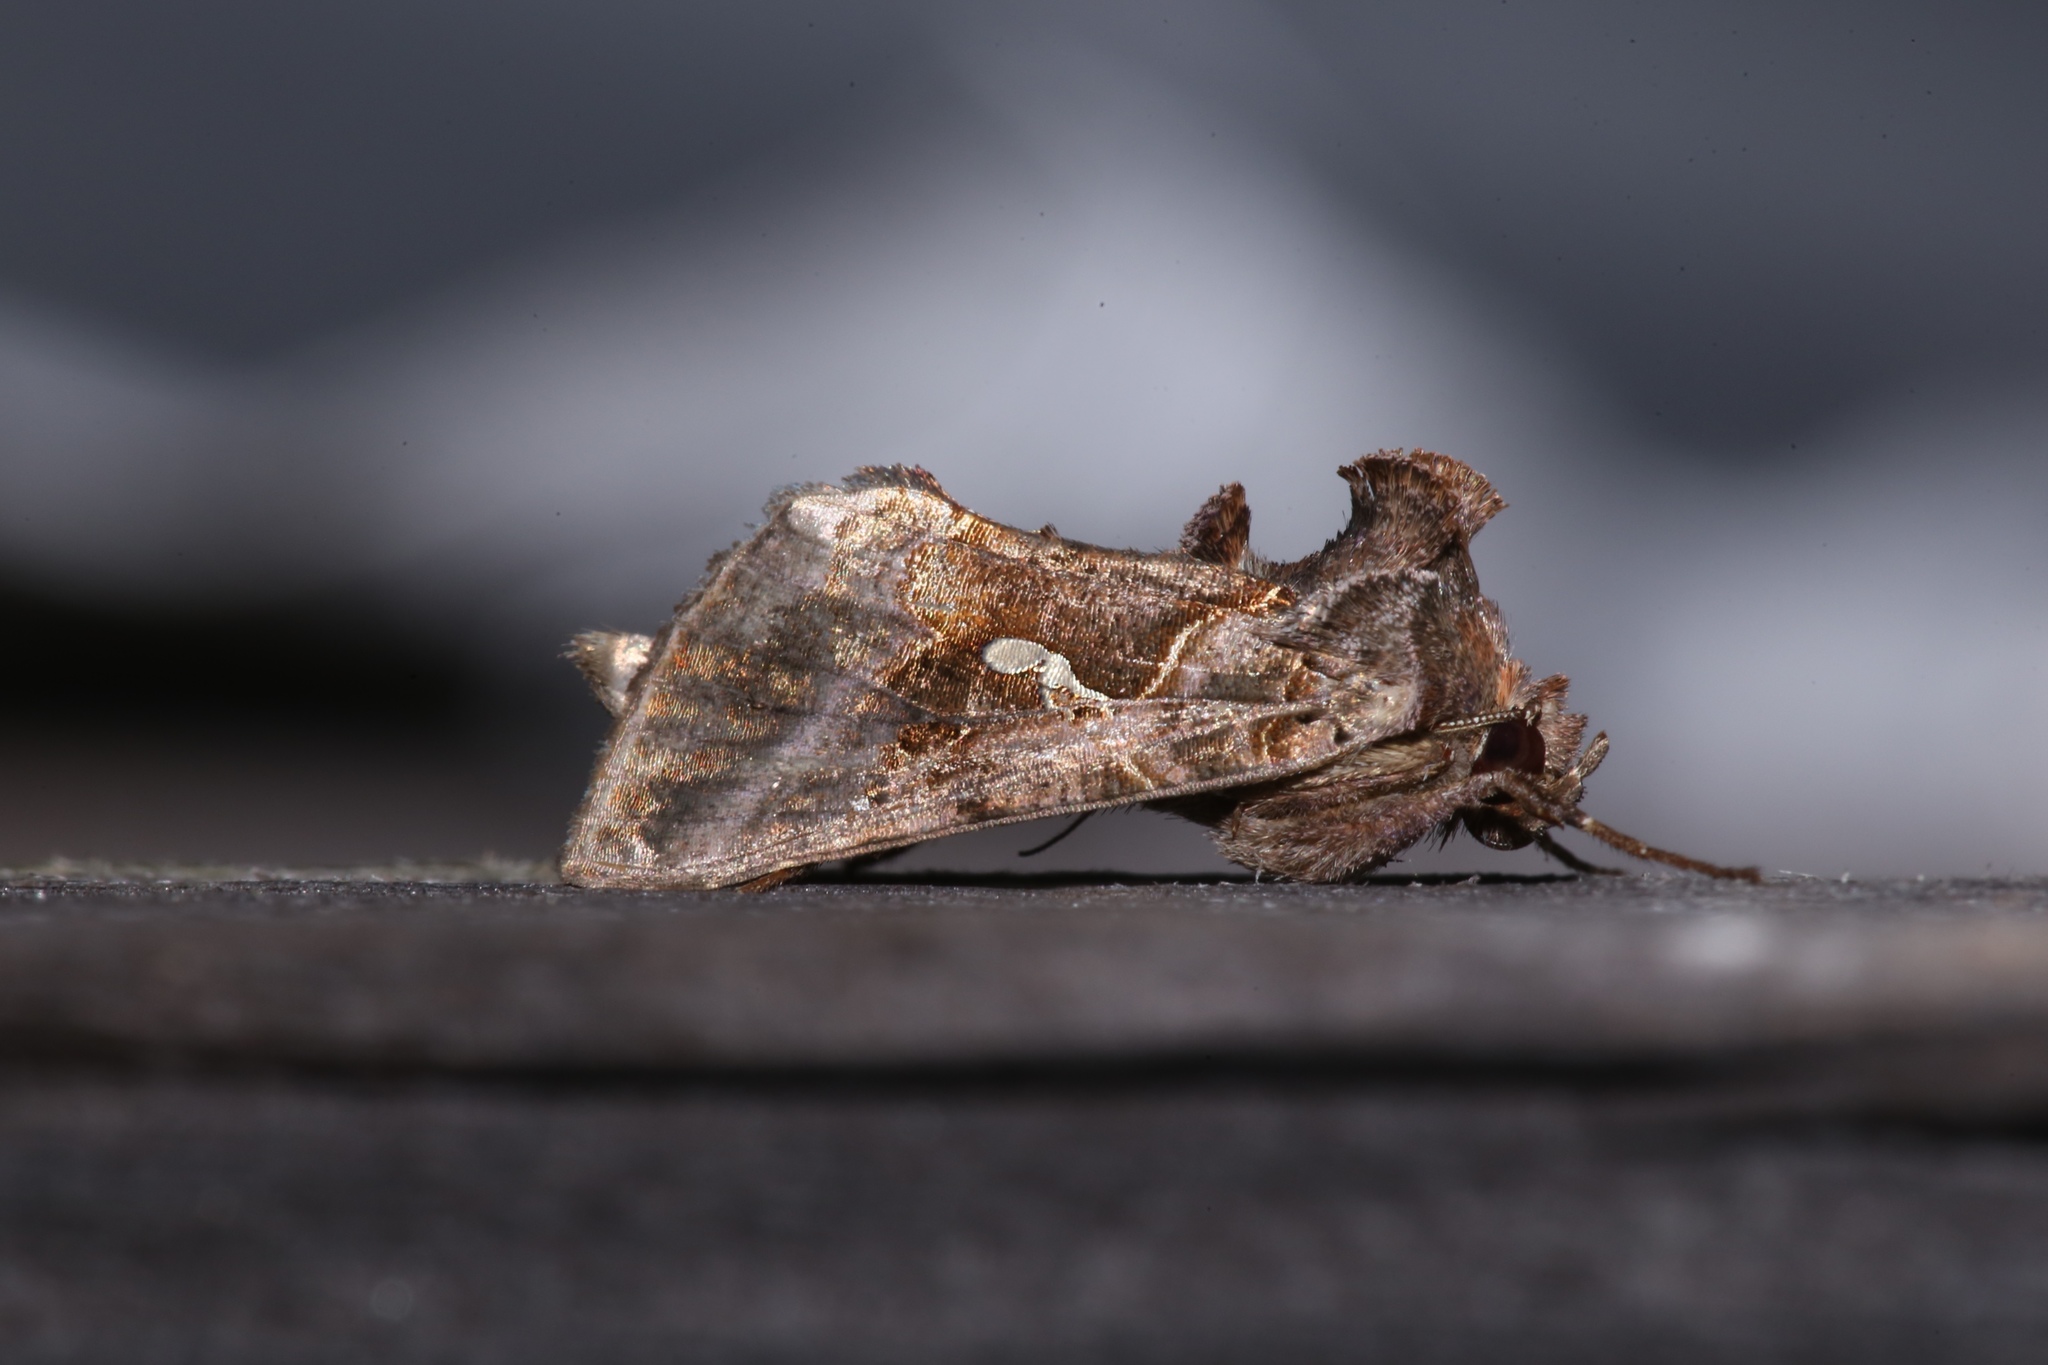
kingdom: Animalia
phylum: Arthropoda
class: Insecta
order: Lepidoptera
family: Noctuidae
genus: Autographa
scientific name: Autographa precationis
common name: Common looper moth
